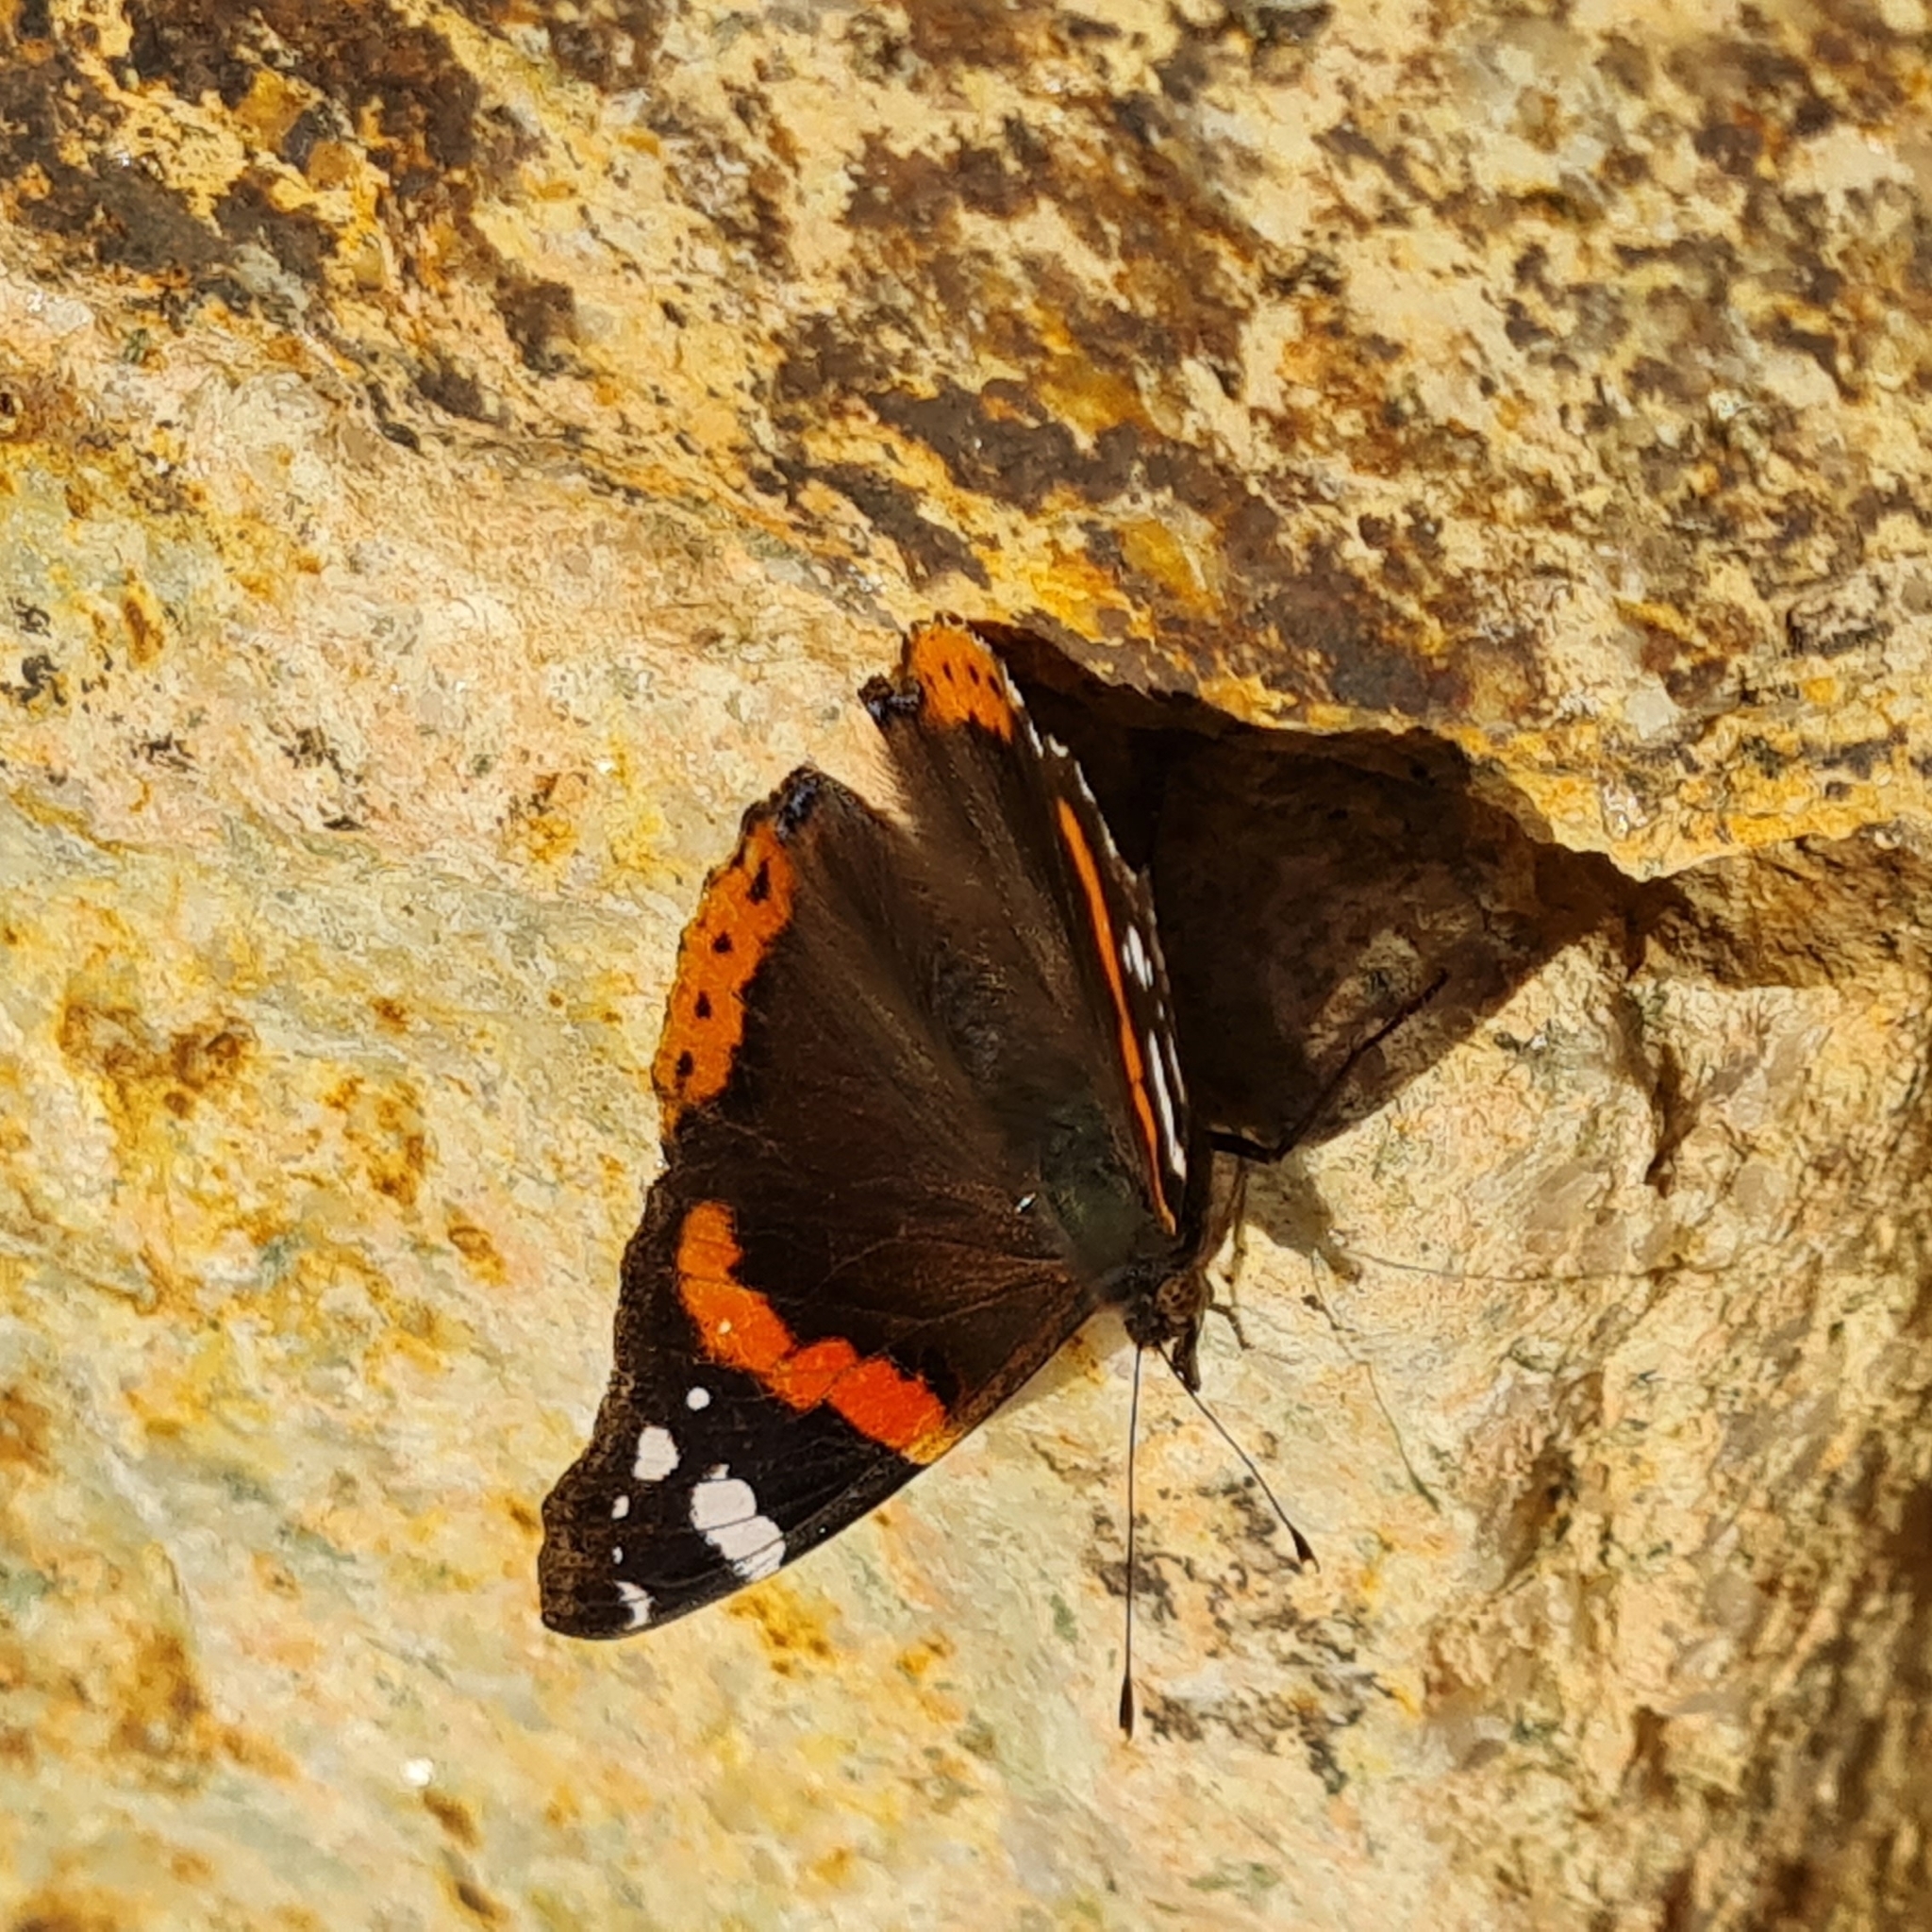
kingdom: Animalia
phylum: Arthropoda
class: Insecta
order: Lepidoptera
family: Nymphalidae
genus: Vanessa
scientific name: Vanessa atalanta
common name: Red admiral
